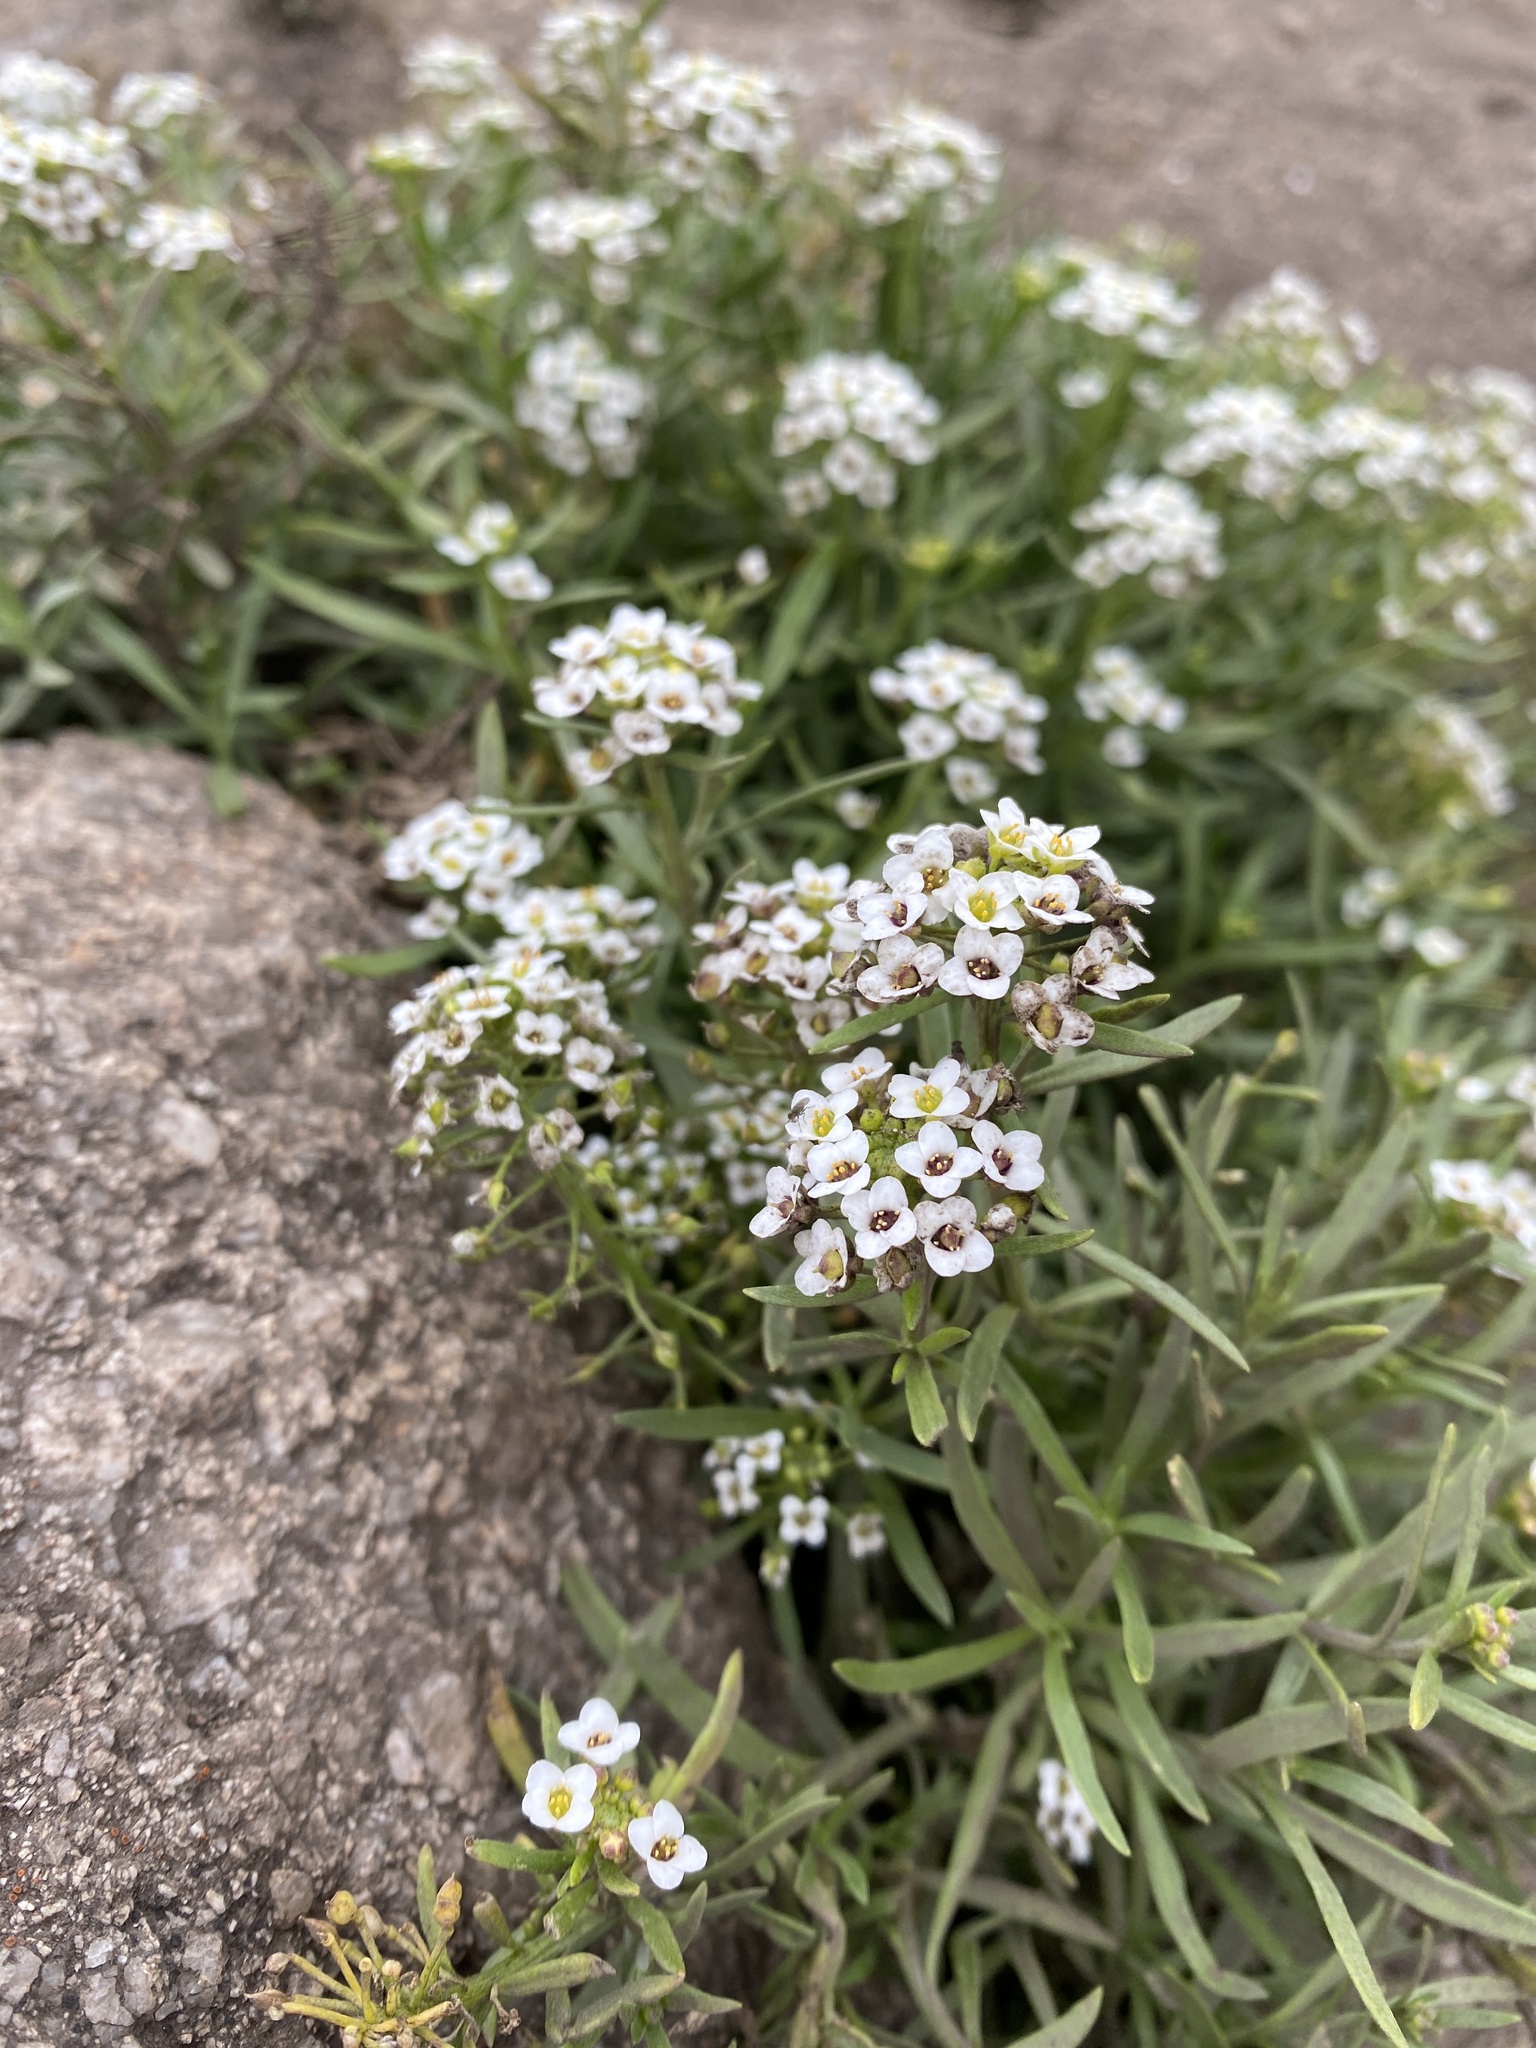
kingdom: Plantae
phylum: Tracheophyta
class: Magnoliopsida
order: Brassicales
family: Brassicaceae
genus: Lobularia
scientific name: Lobularia maritima
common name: Sweet alison
